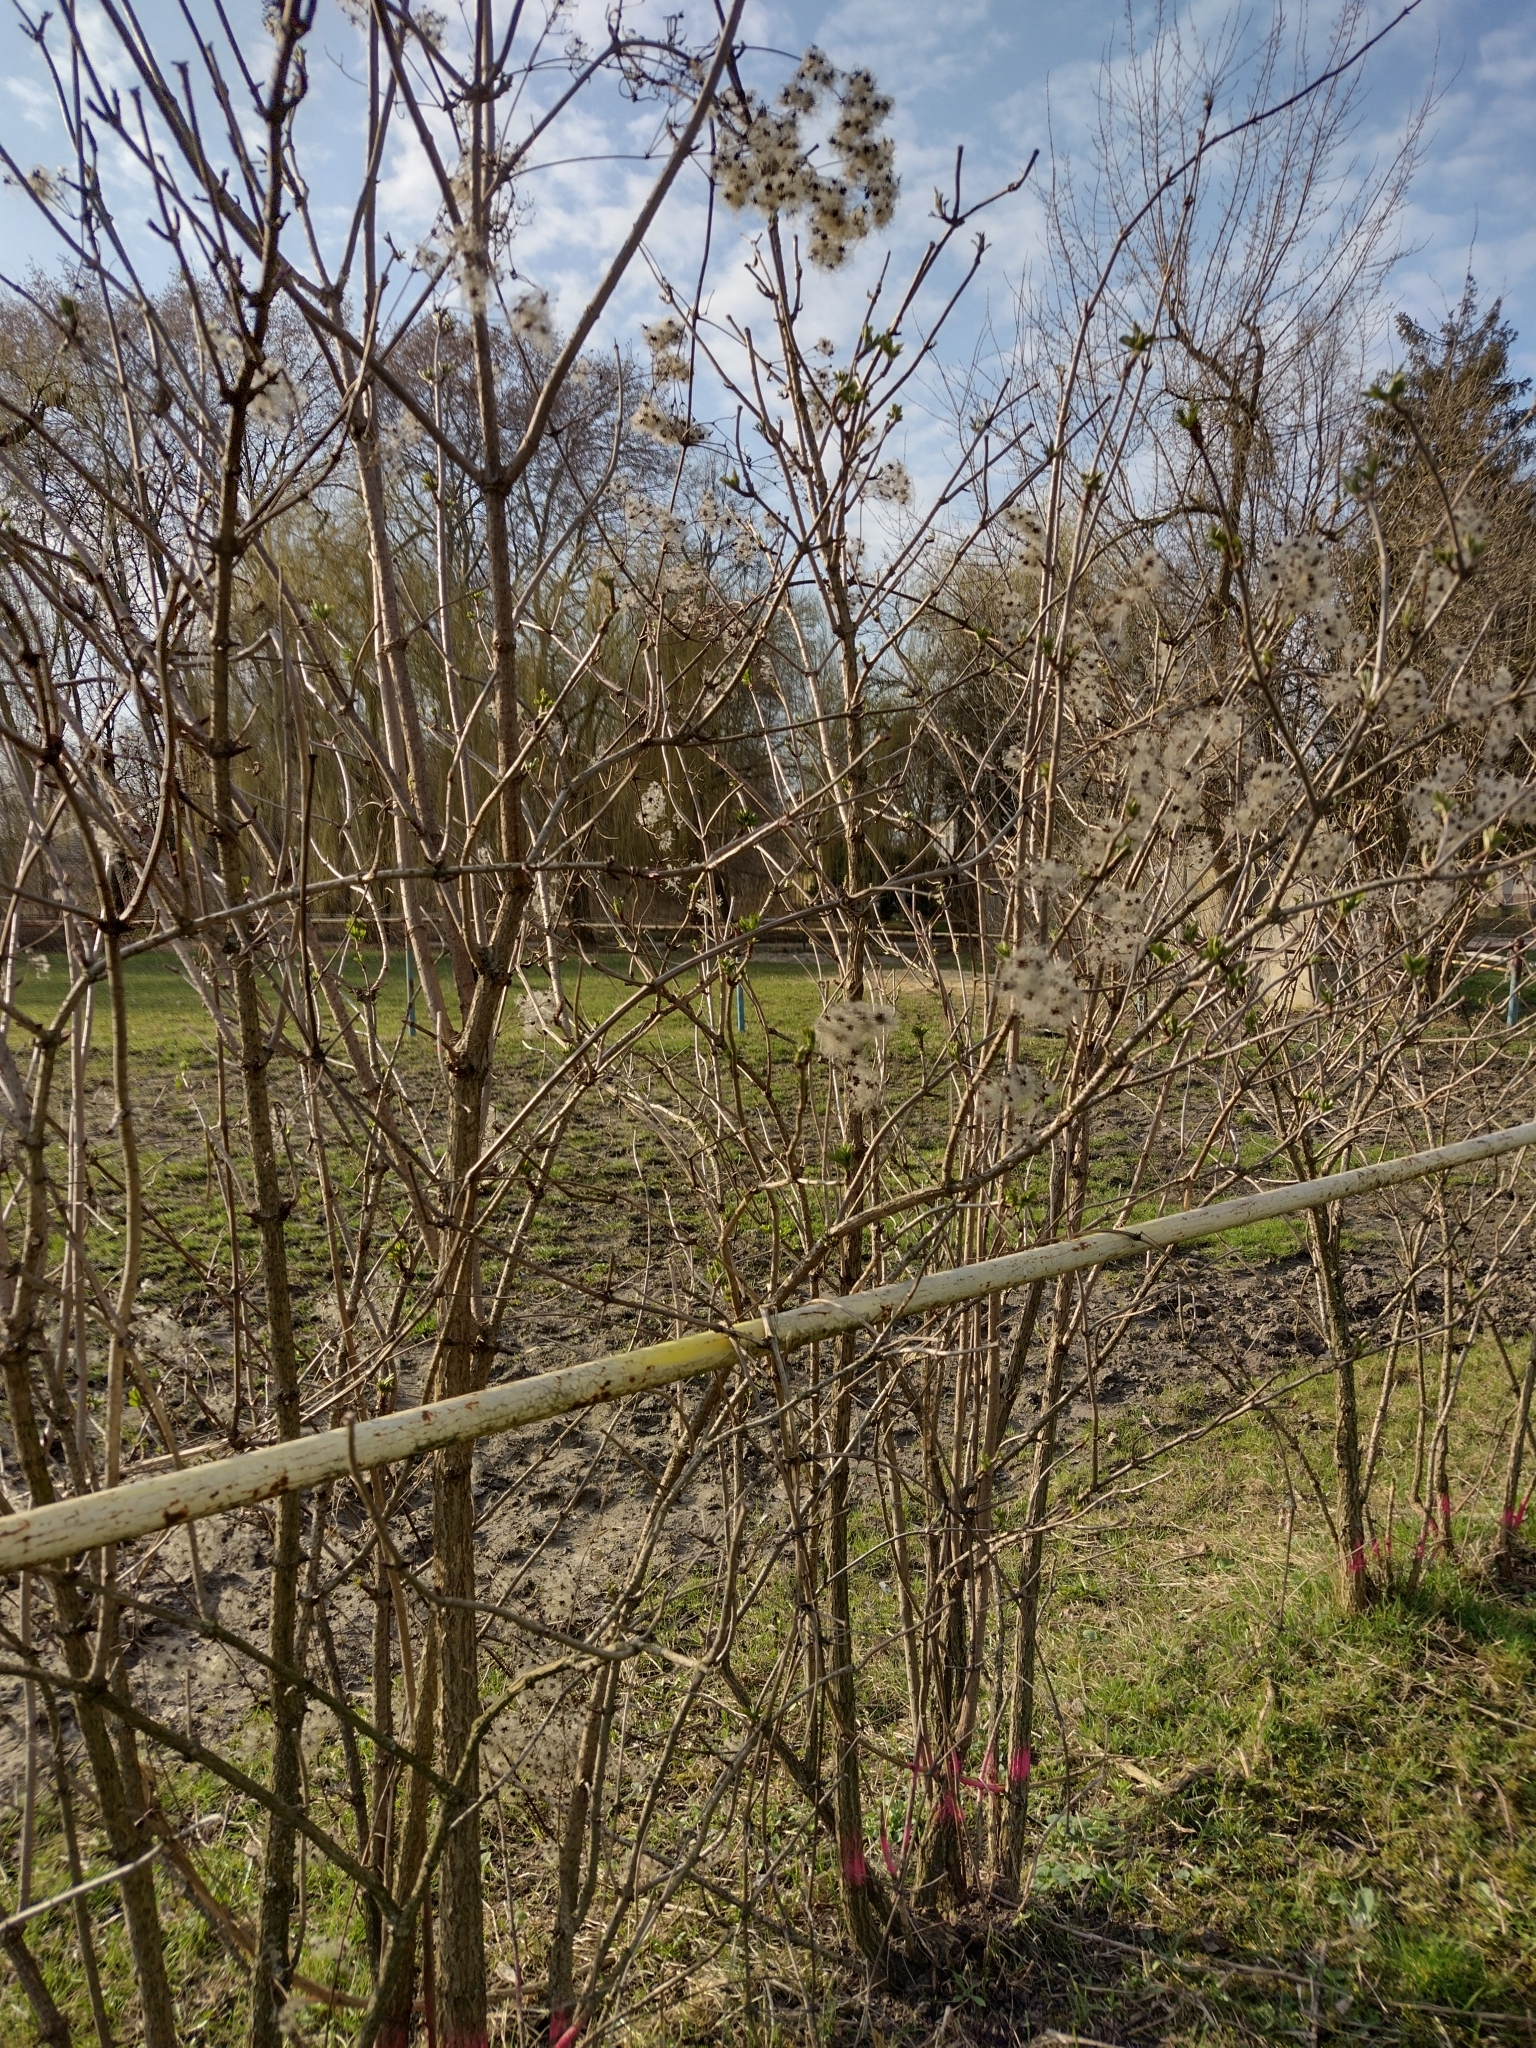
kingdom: Plantae
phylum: Tracheophyta
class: Magnoliopsida
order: Ranunculales
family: Ranunculaceae
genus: Clematis
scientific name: Clematis vitalba
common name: Evergreen clematis
